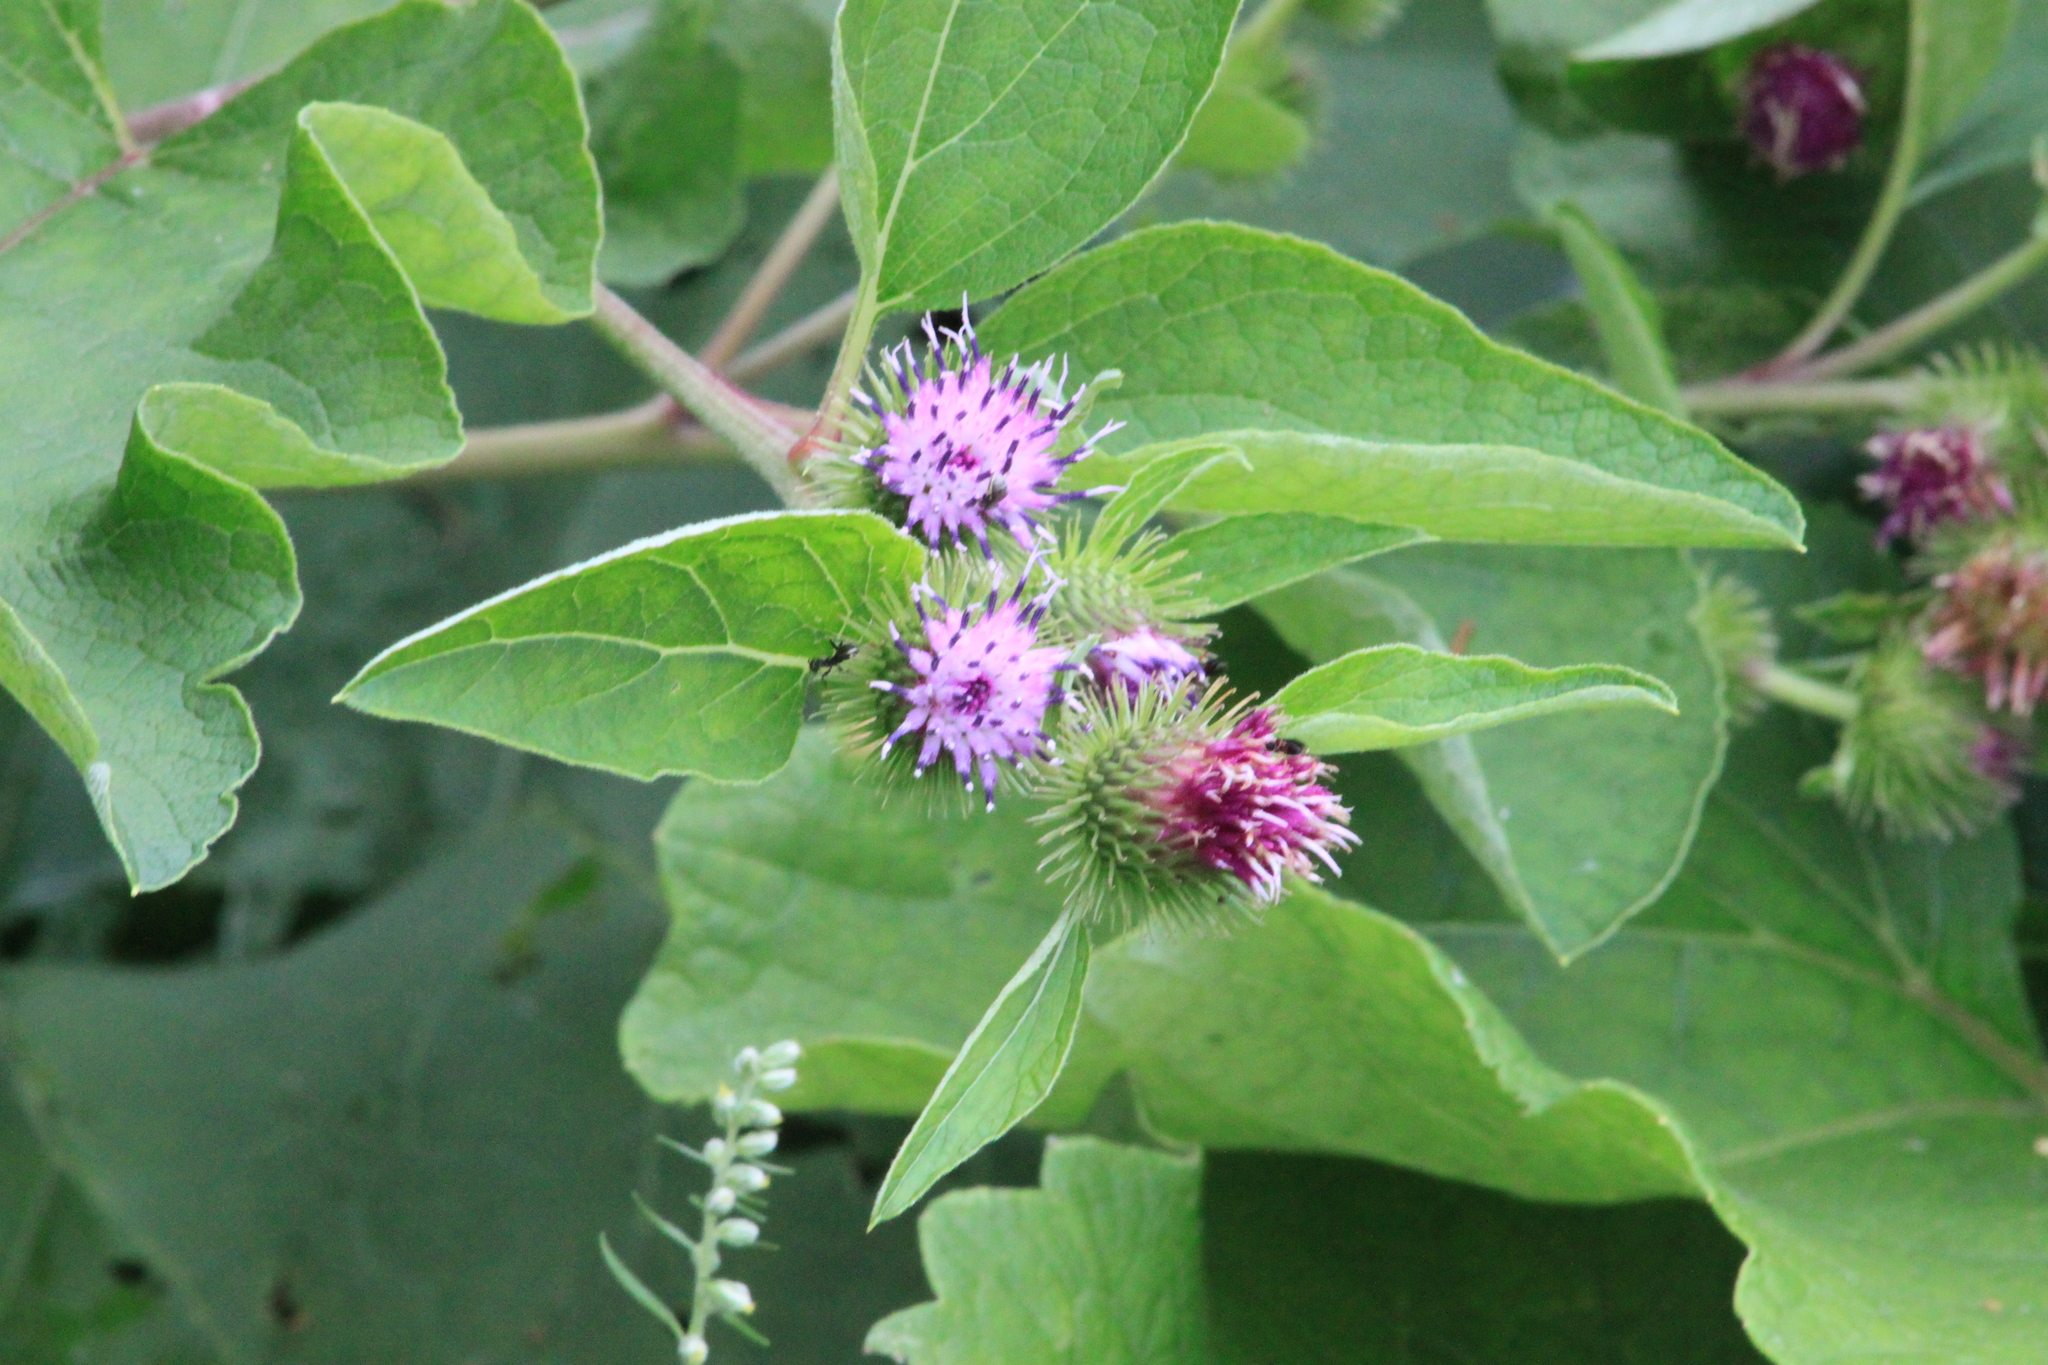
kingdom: Plantae
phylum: Tracheophyta
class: Magnoliopsida
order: Asterales
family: Asteraceae
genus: Arctium
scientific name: Arctium minus
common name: Lesser burdock
